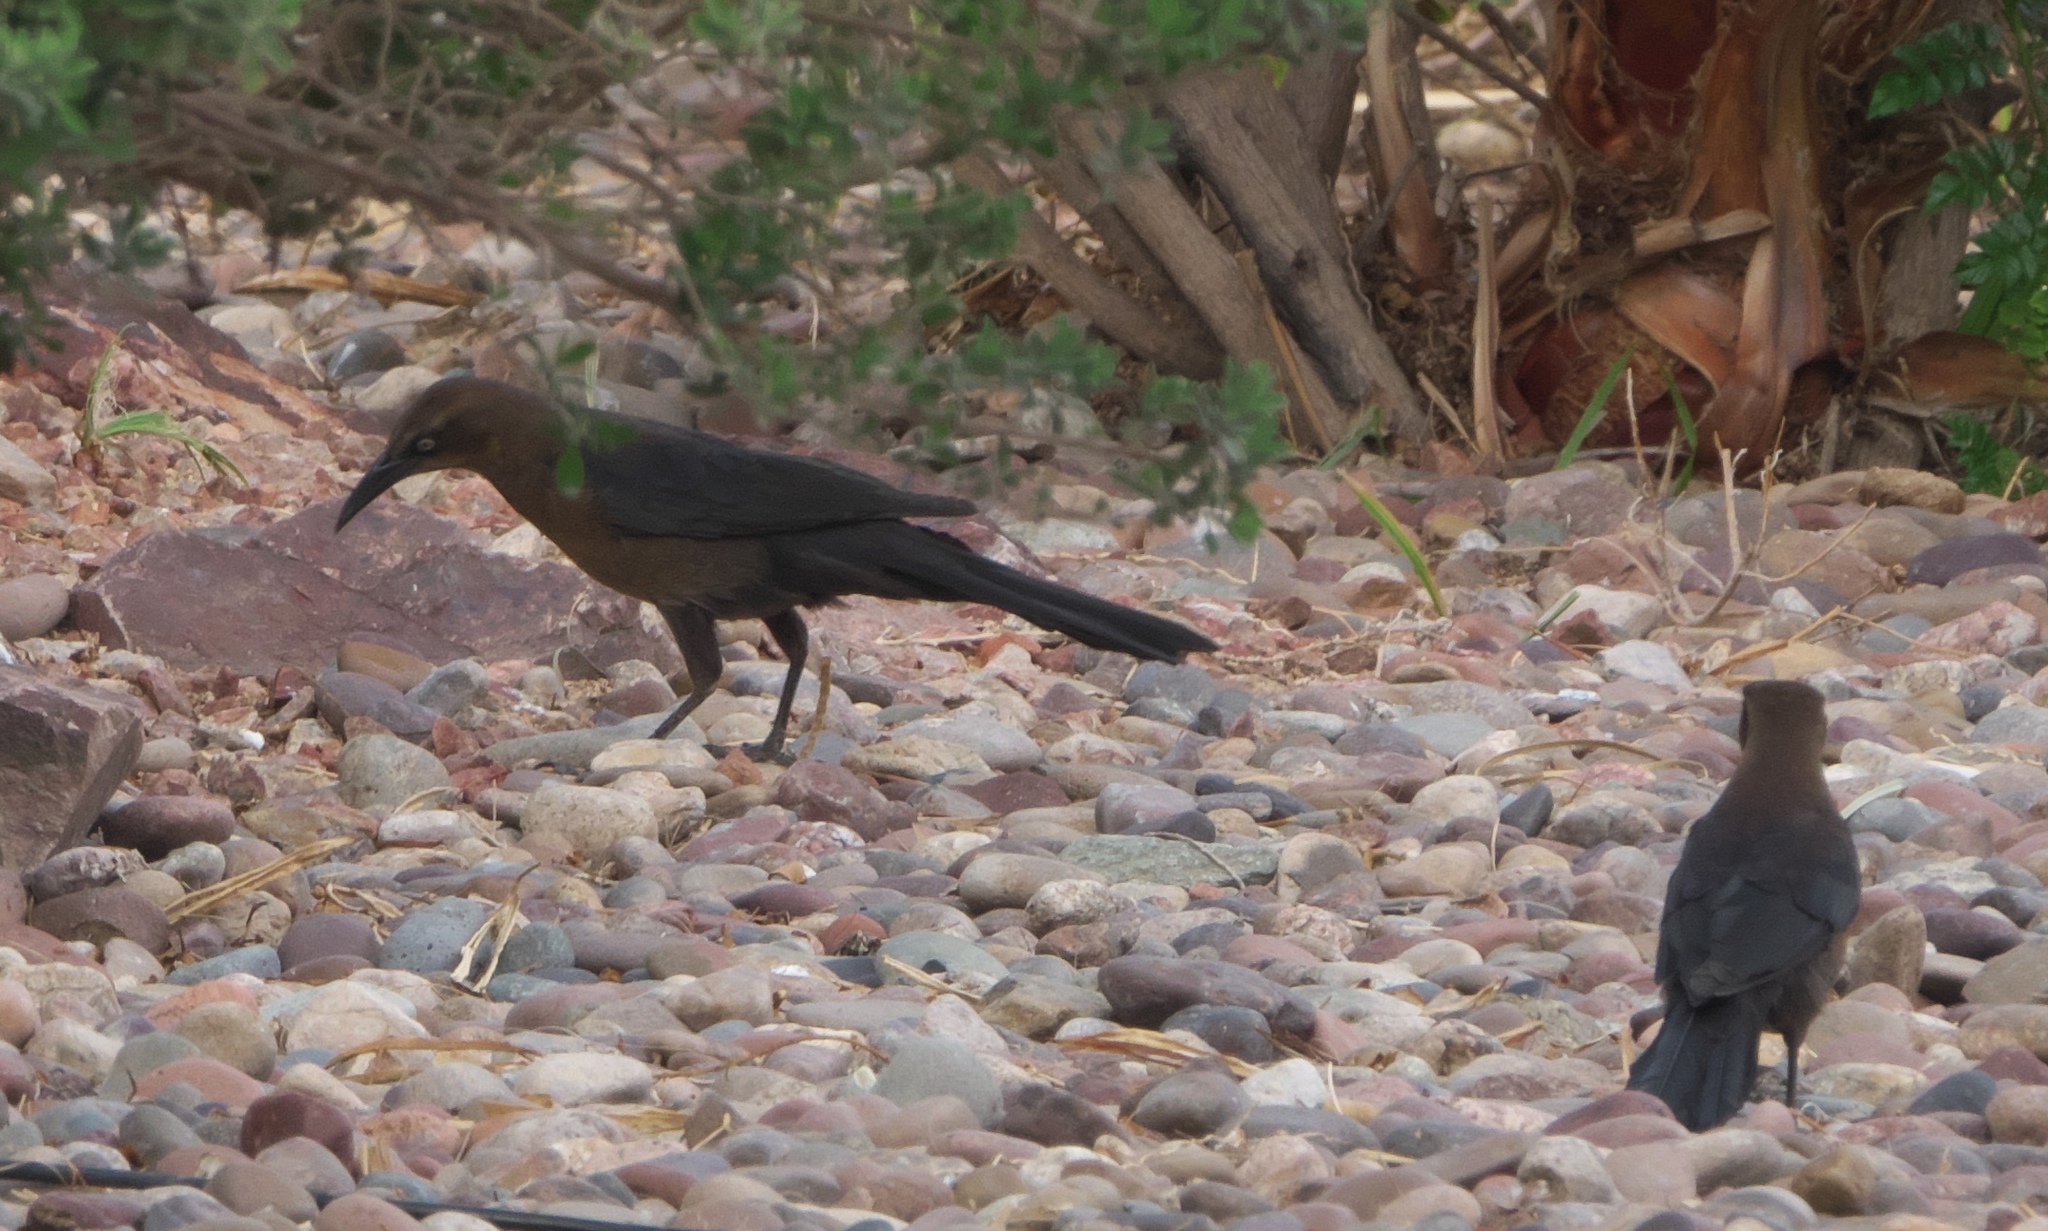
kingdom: Animalia
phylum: Chordata
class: Aves
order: Passeriformes
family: Icteridae
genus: Quiscalus
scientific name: Quiscalus mexicanus
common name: Great-tailed grackle
